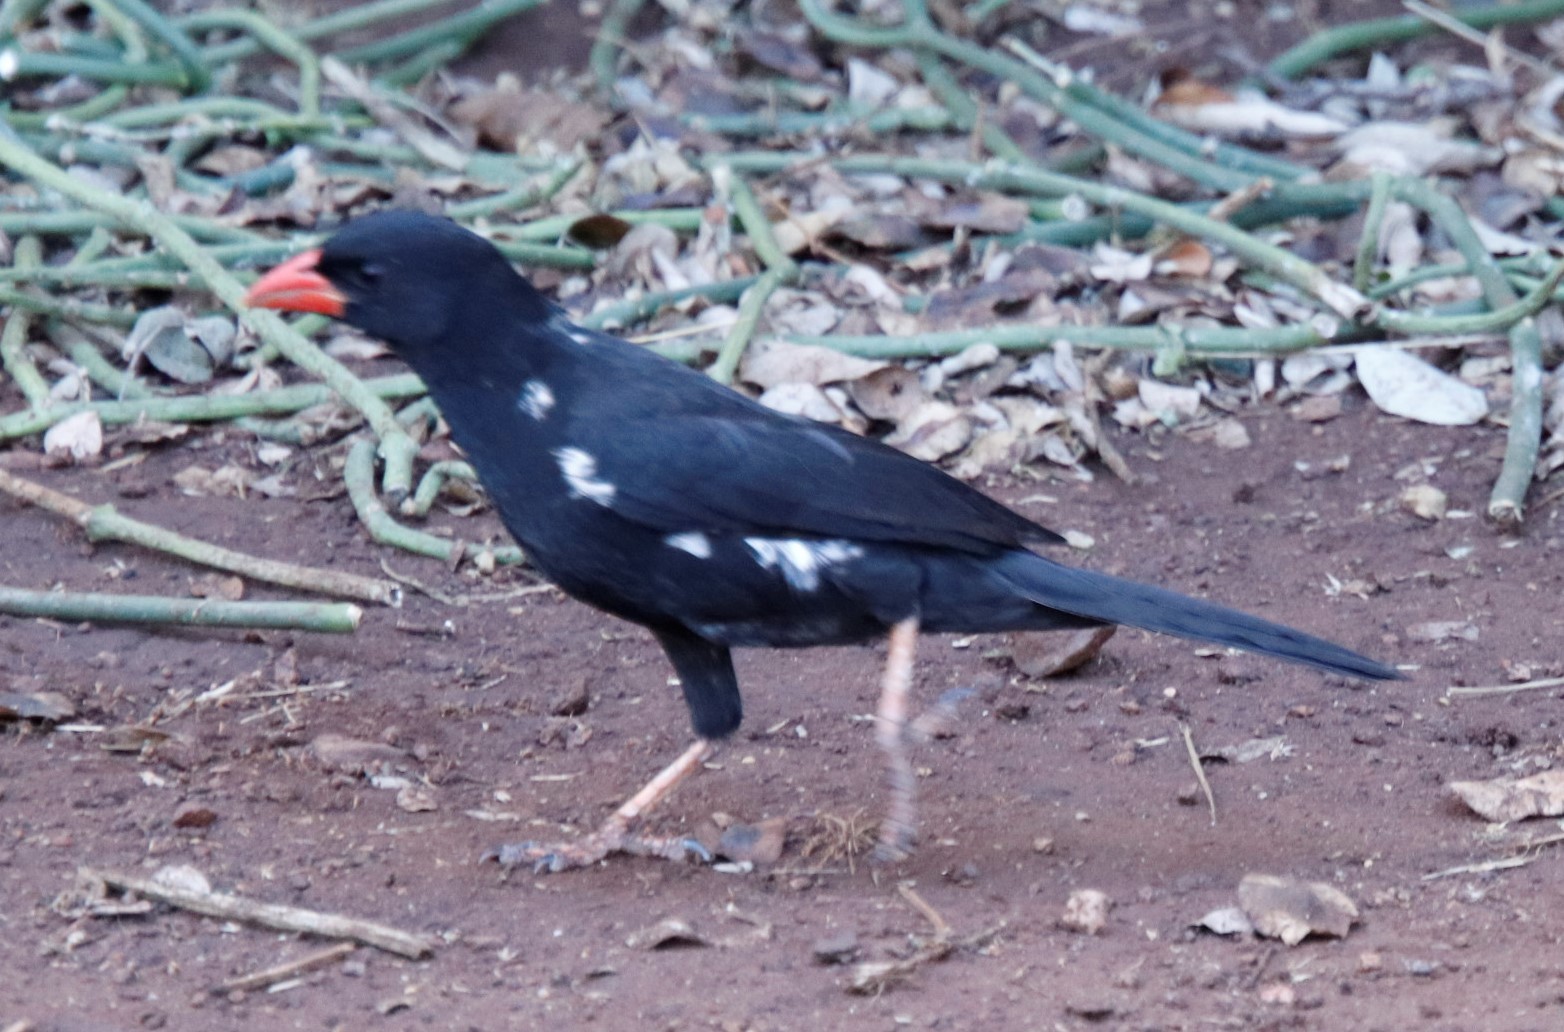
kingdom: Animalia
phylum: Chordata
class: Aves
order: Passeriformes
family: Ploceidae
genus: Bubalornis
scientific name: Bubalornis niger
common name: Red-billed buffalo weaver
